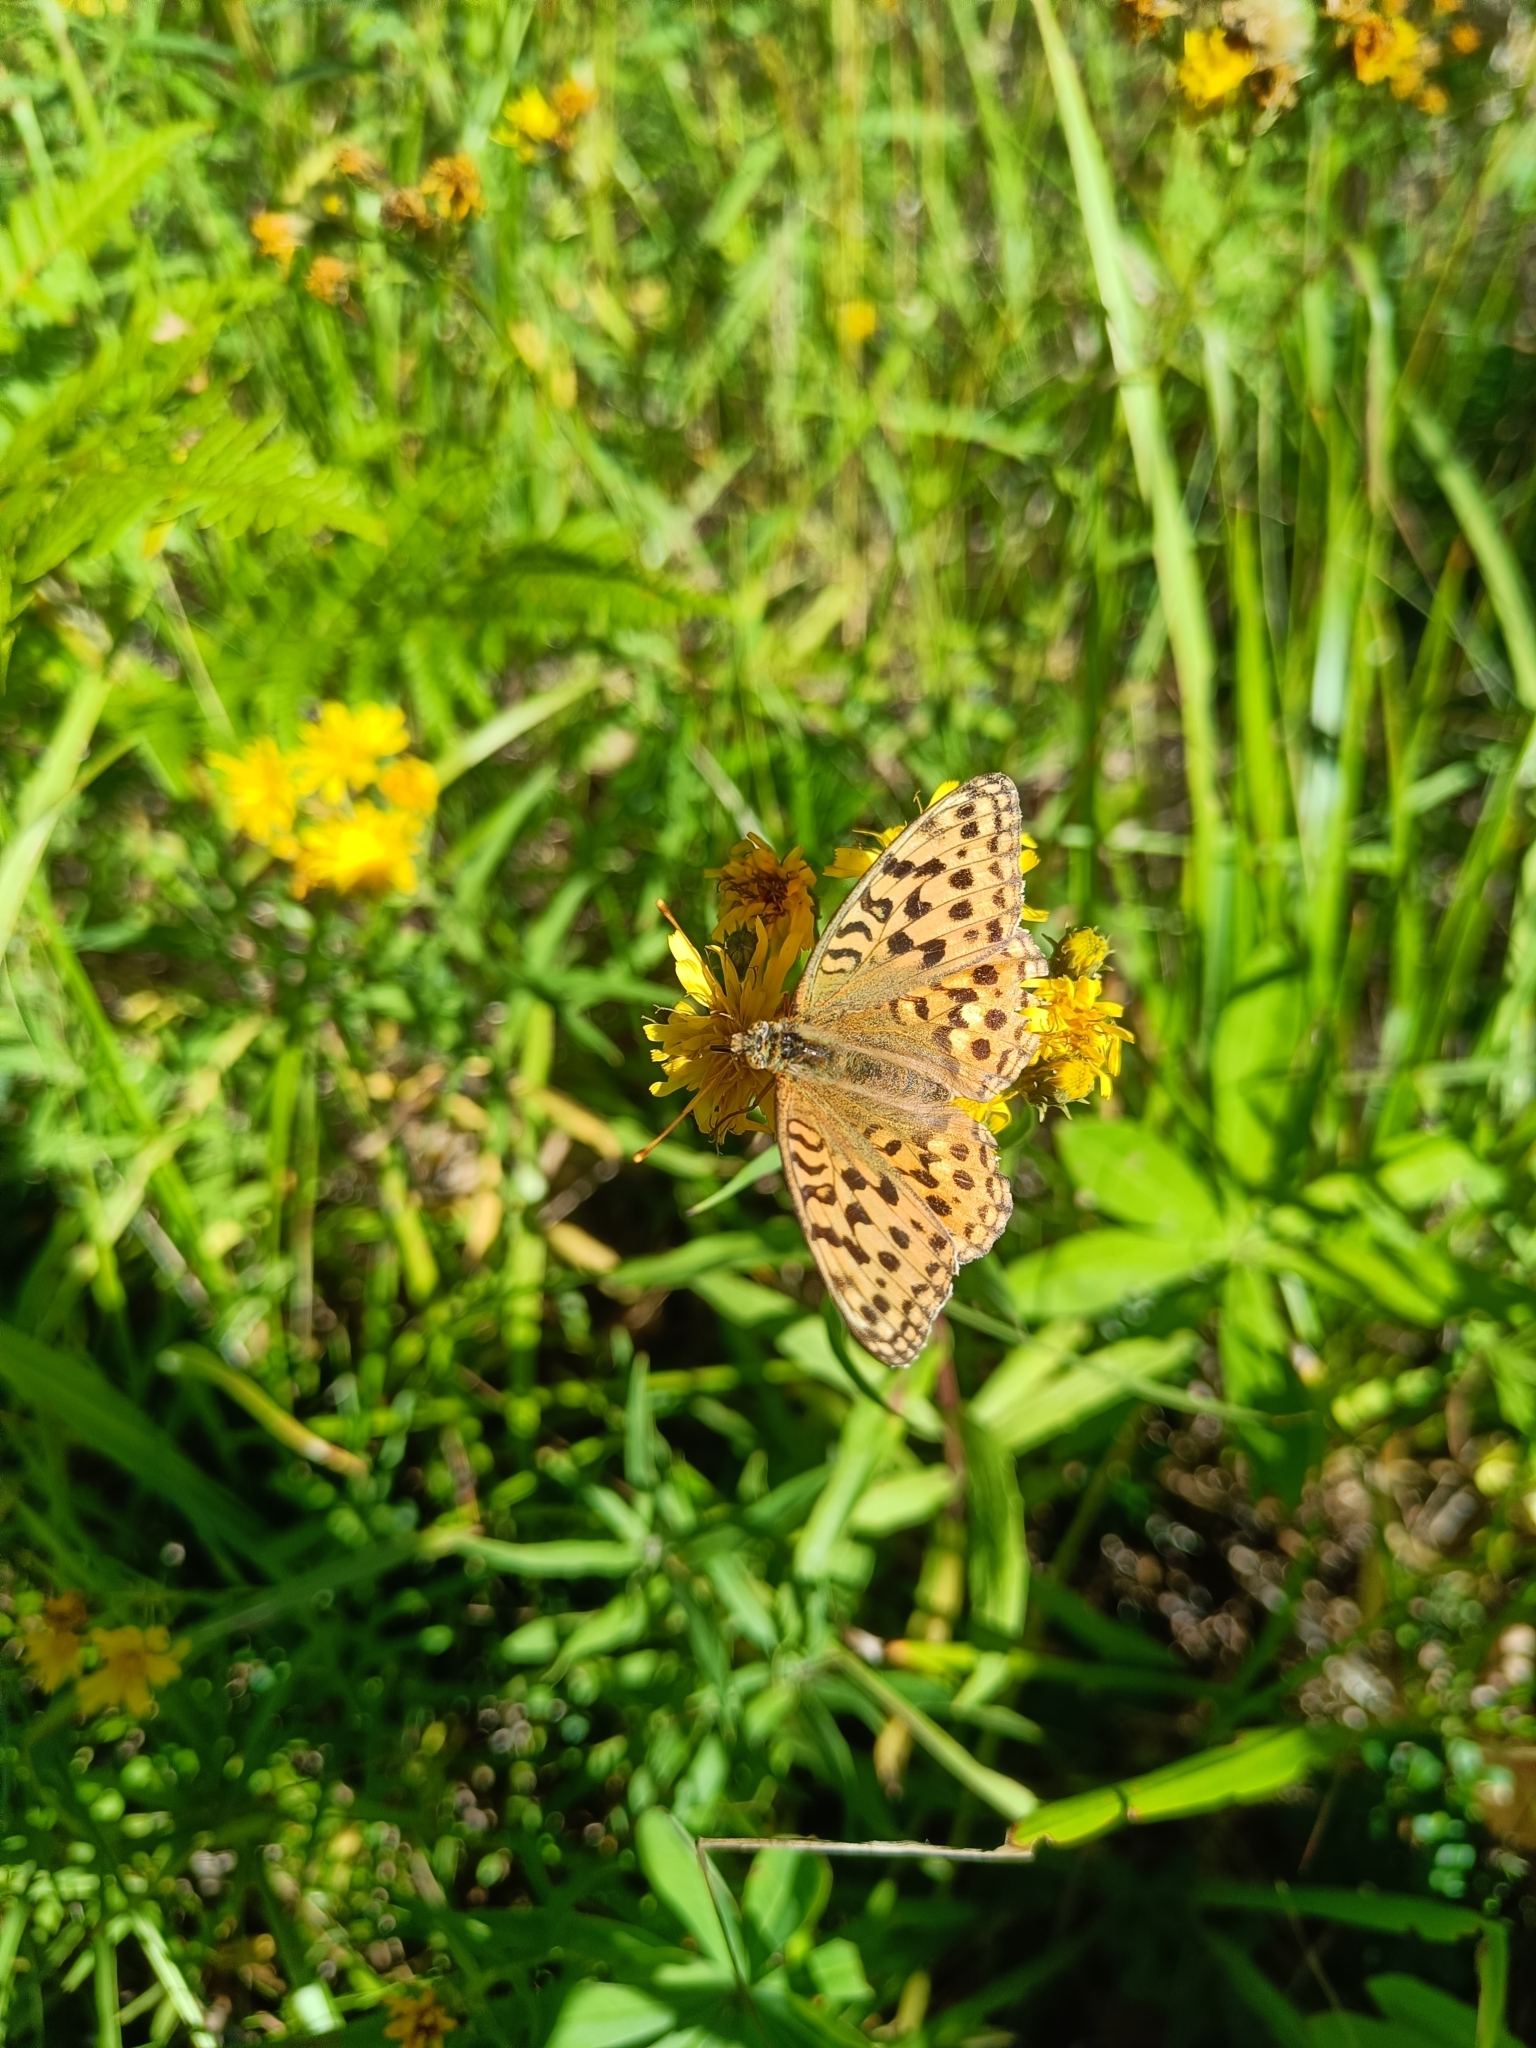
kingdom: Animalia
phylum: Arthropoda
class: Insecta
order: Lepidoptera
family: Nymphalidae
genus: Fabriciana
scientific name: Fabriciana adippe
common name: High brown fritillary
